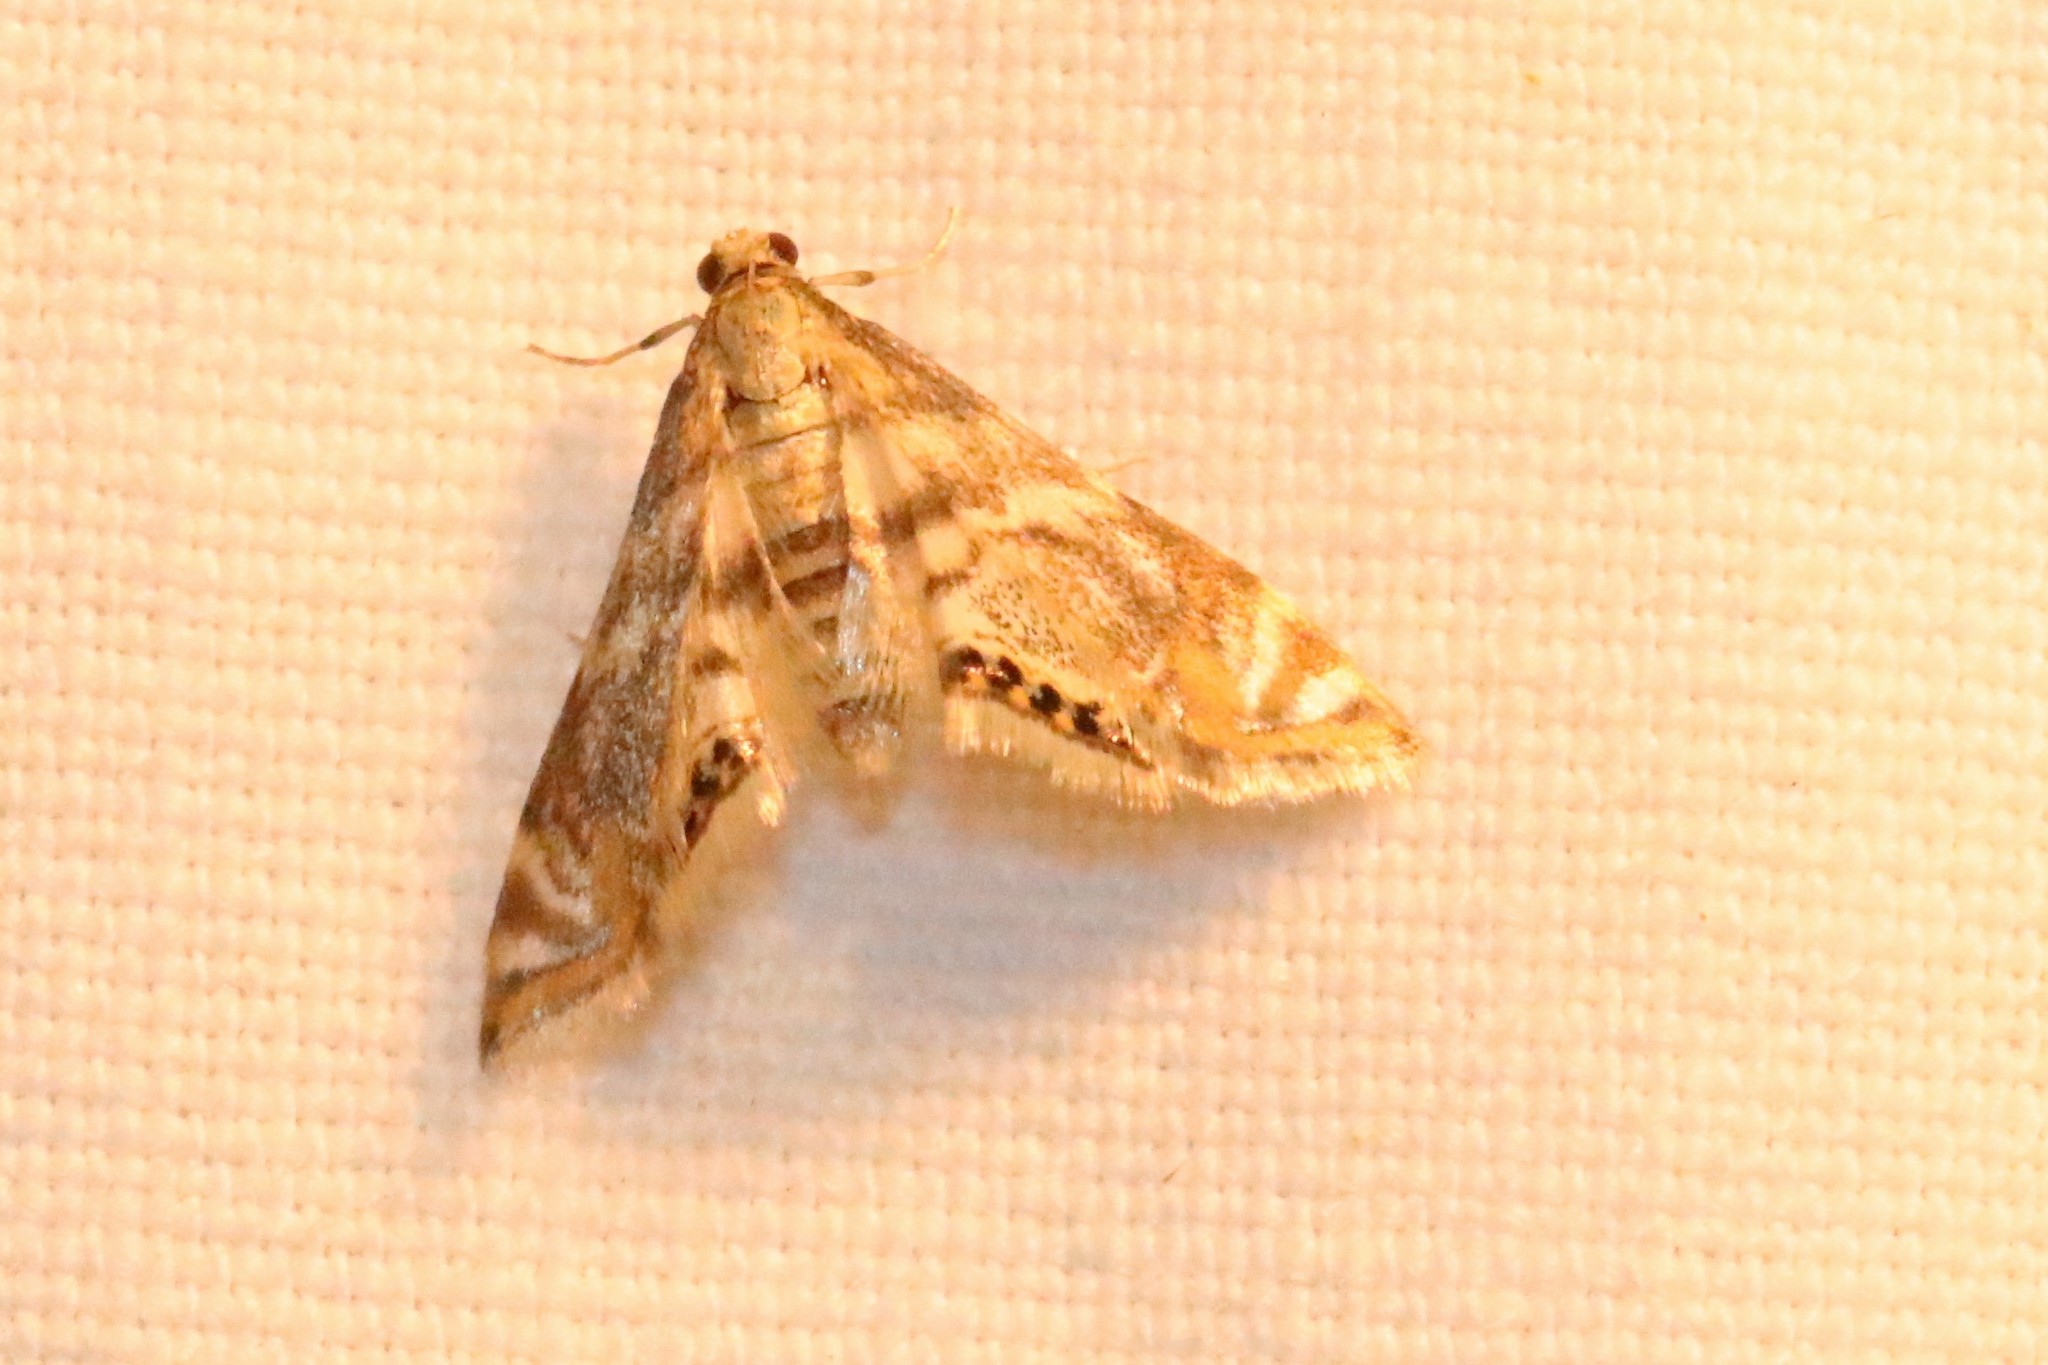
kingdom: Animalia
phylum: Arthropoda
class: Insecta
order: Lepidoptera
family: Crambidae
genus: Petrophila
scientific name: Petrophila canadensis
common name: Canadian petrophila
